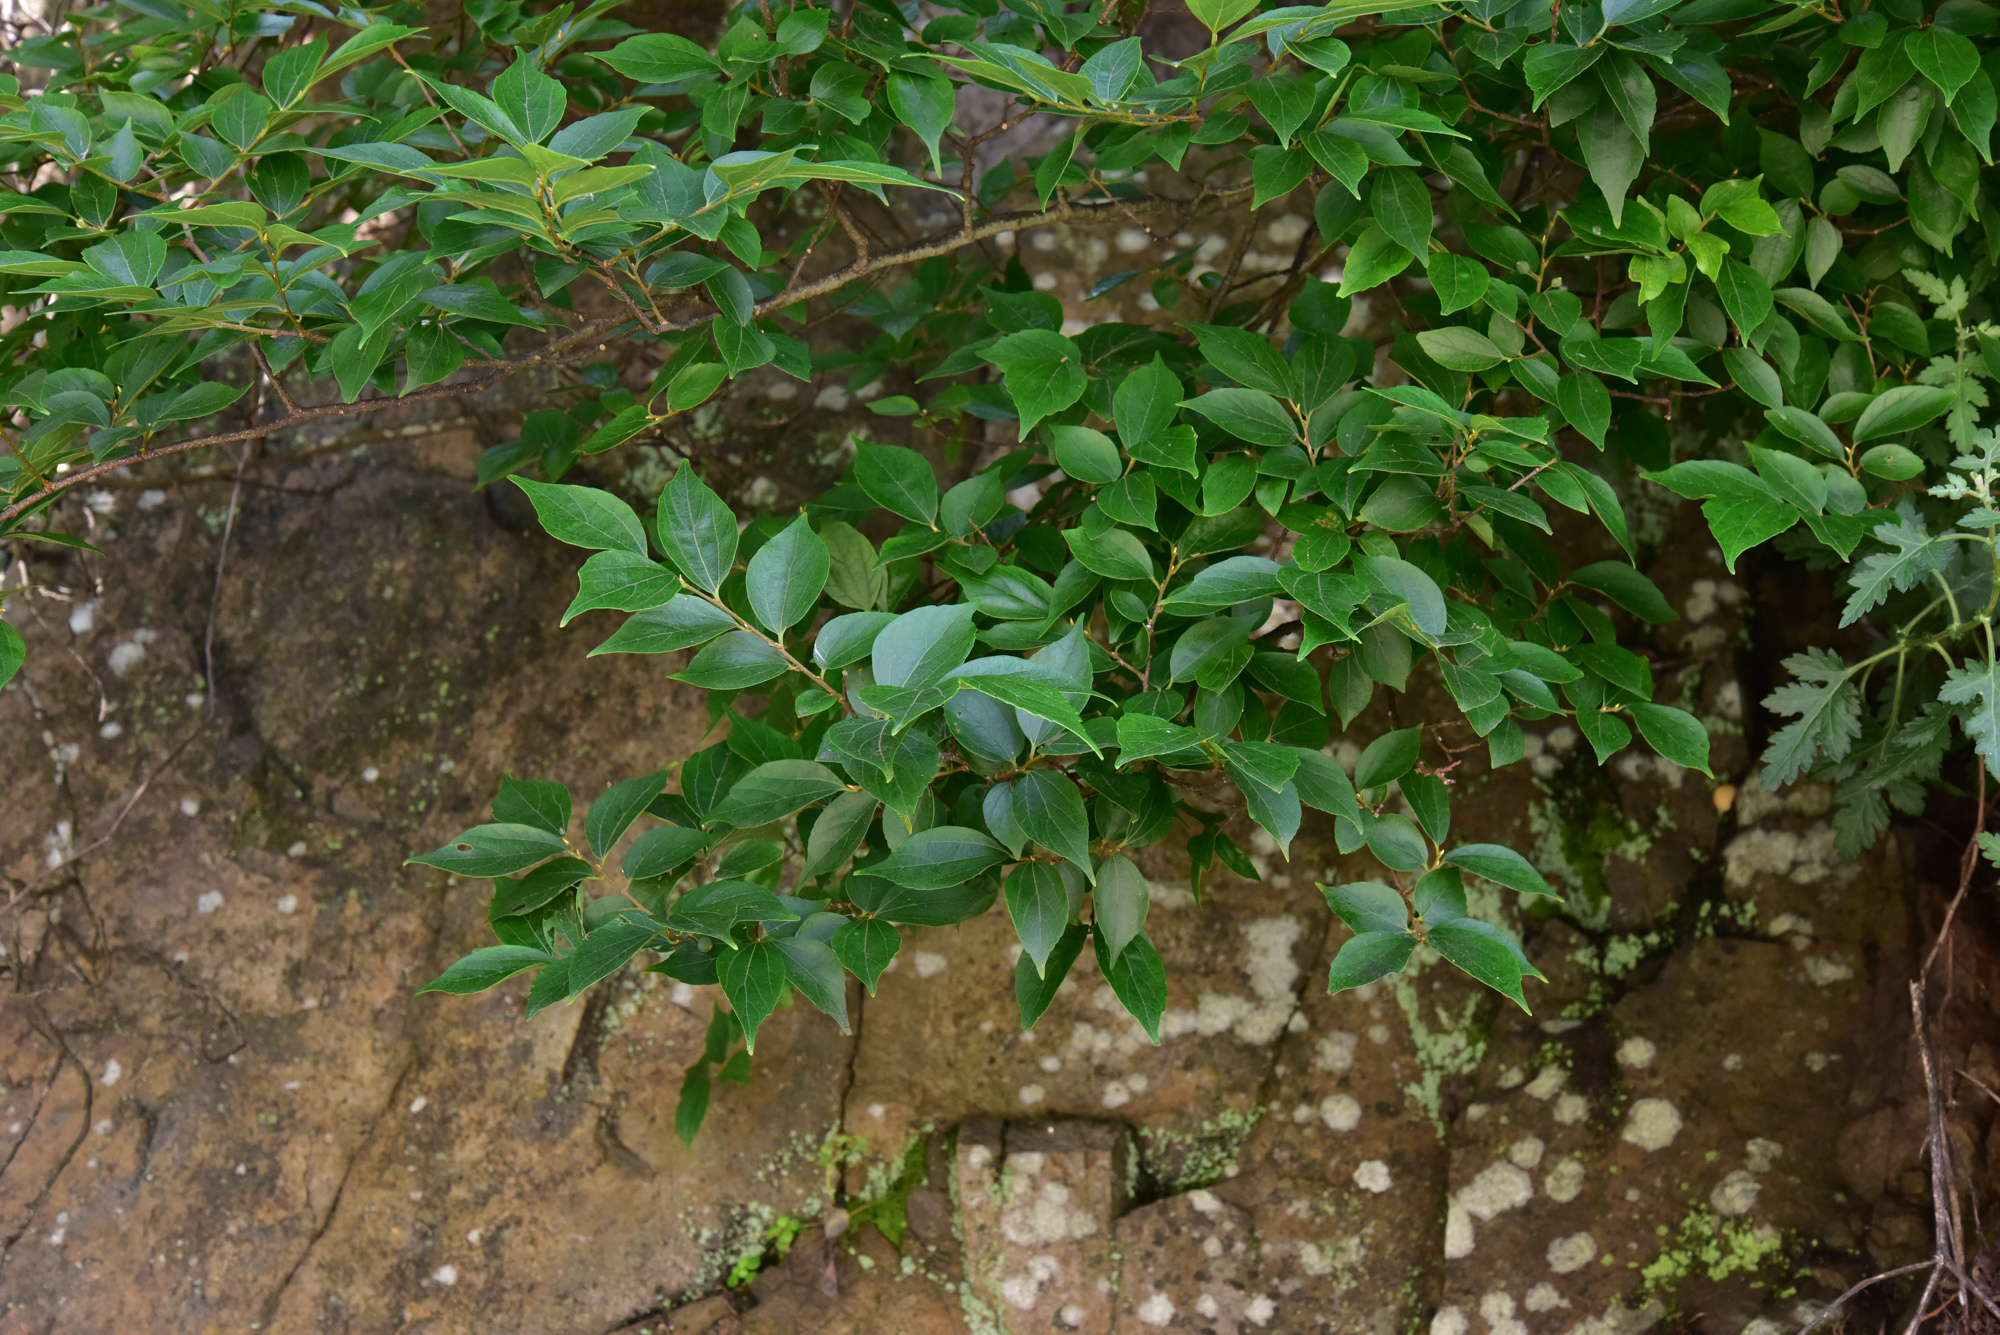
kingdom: Plantae
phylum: Tracheophyta
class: Magnoliopsida
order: Rosales
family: Cannabaceae
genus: Celtis
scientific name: Celtis biondii
